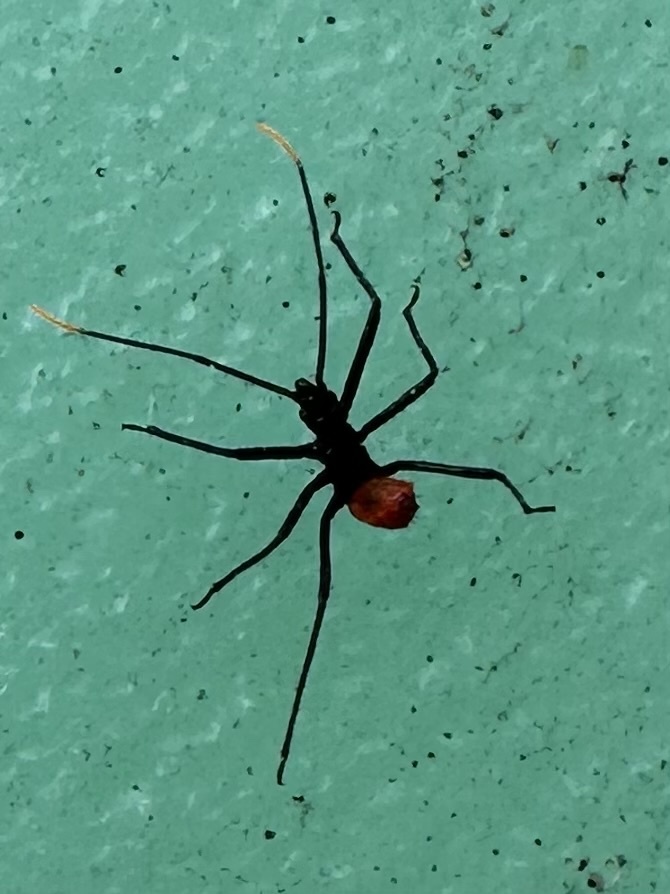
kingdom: Animalia
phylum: Arthropoda
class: Insecta
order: Hemiptera
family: Reduviidae
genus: Arilus
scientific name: Arilus cristatus
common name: North american wheel bug
